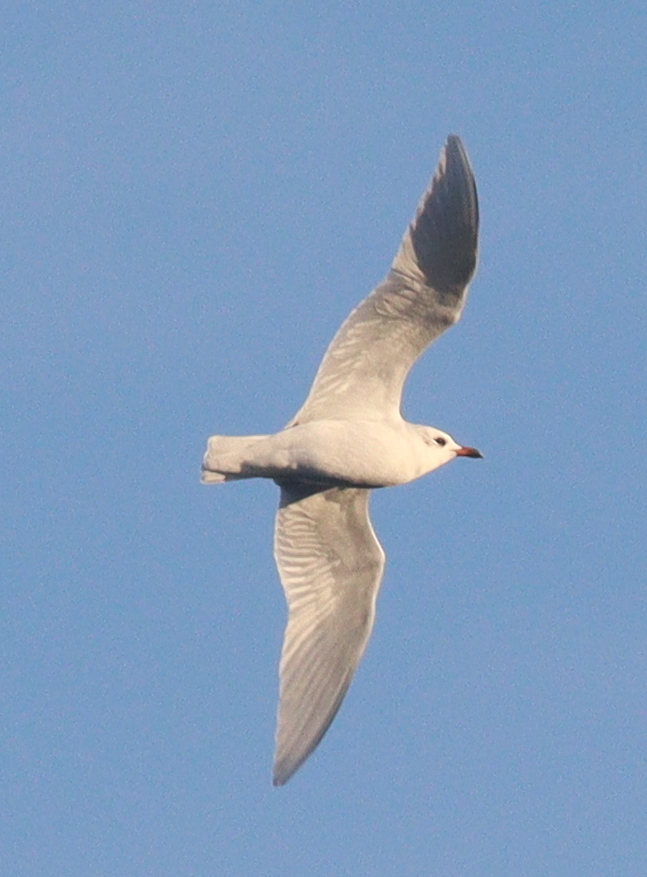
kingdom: Animalia
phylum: Chordata
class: Aves
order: Charadriiformes
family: Laridae
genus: Ichthyaetus
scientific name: Ichthyaetus melanocephalus
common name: Mediterranean gull
